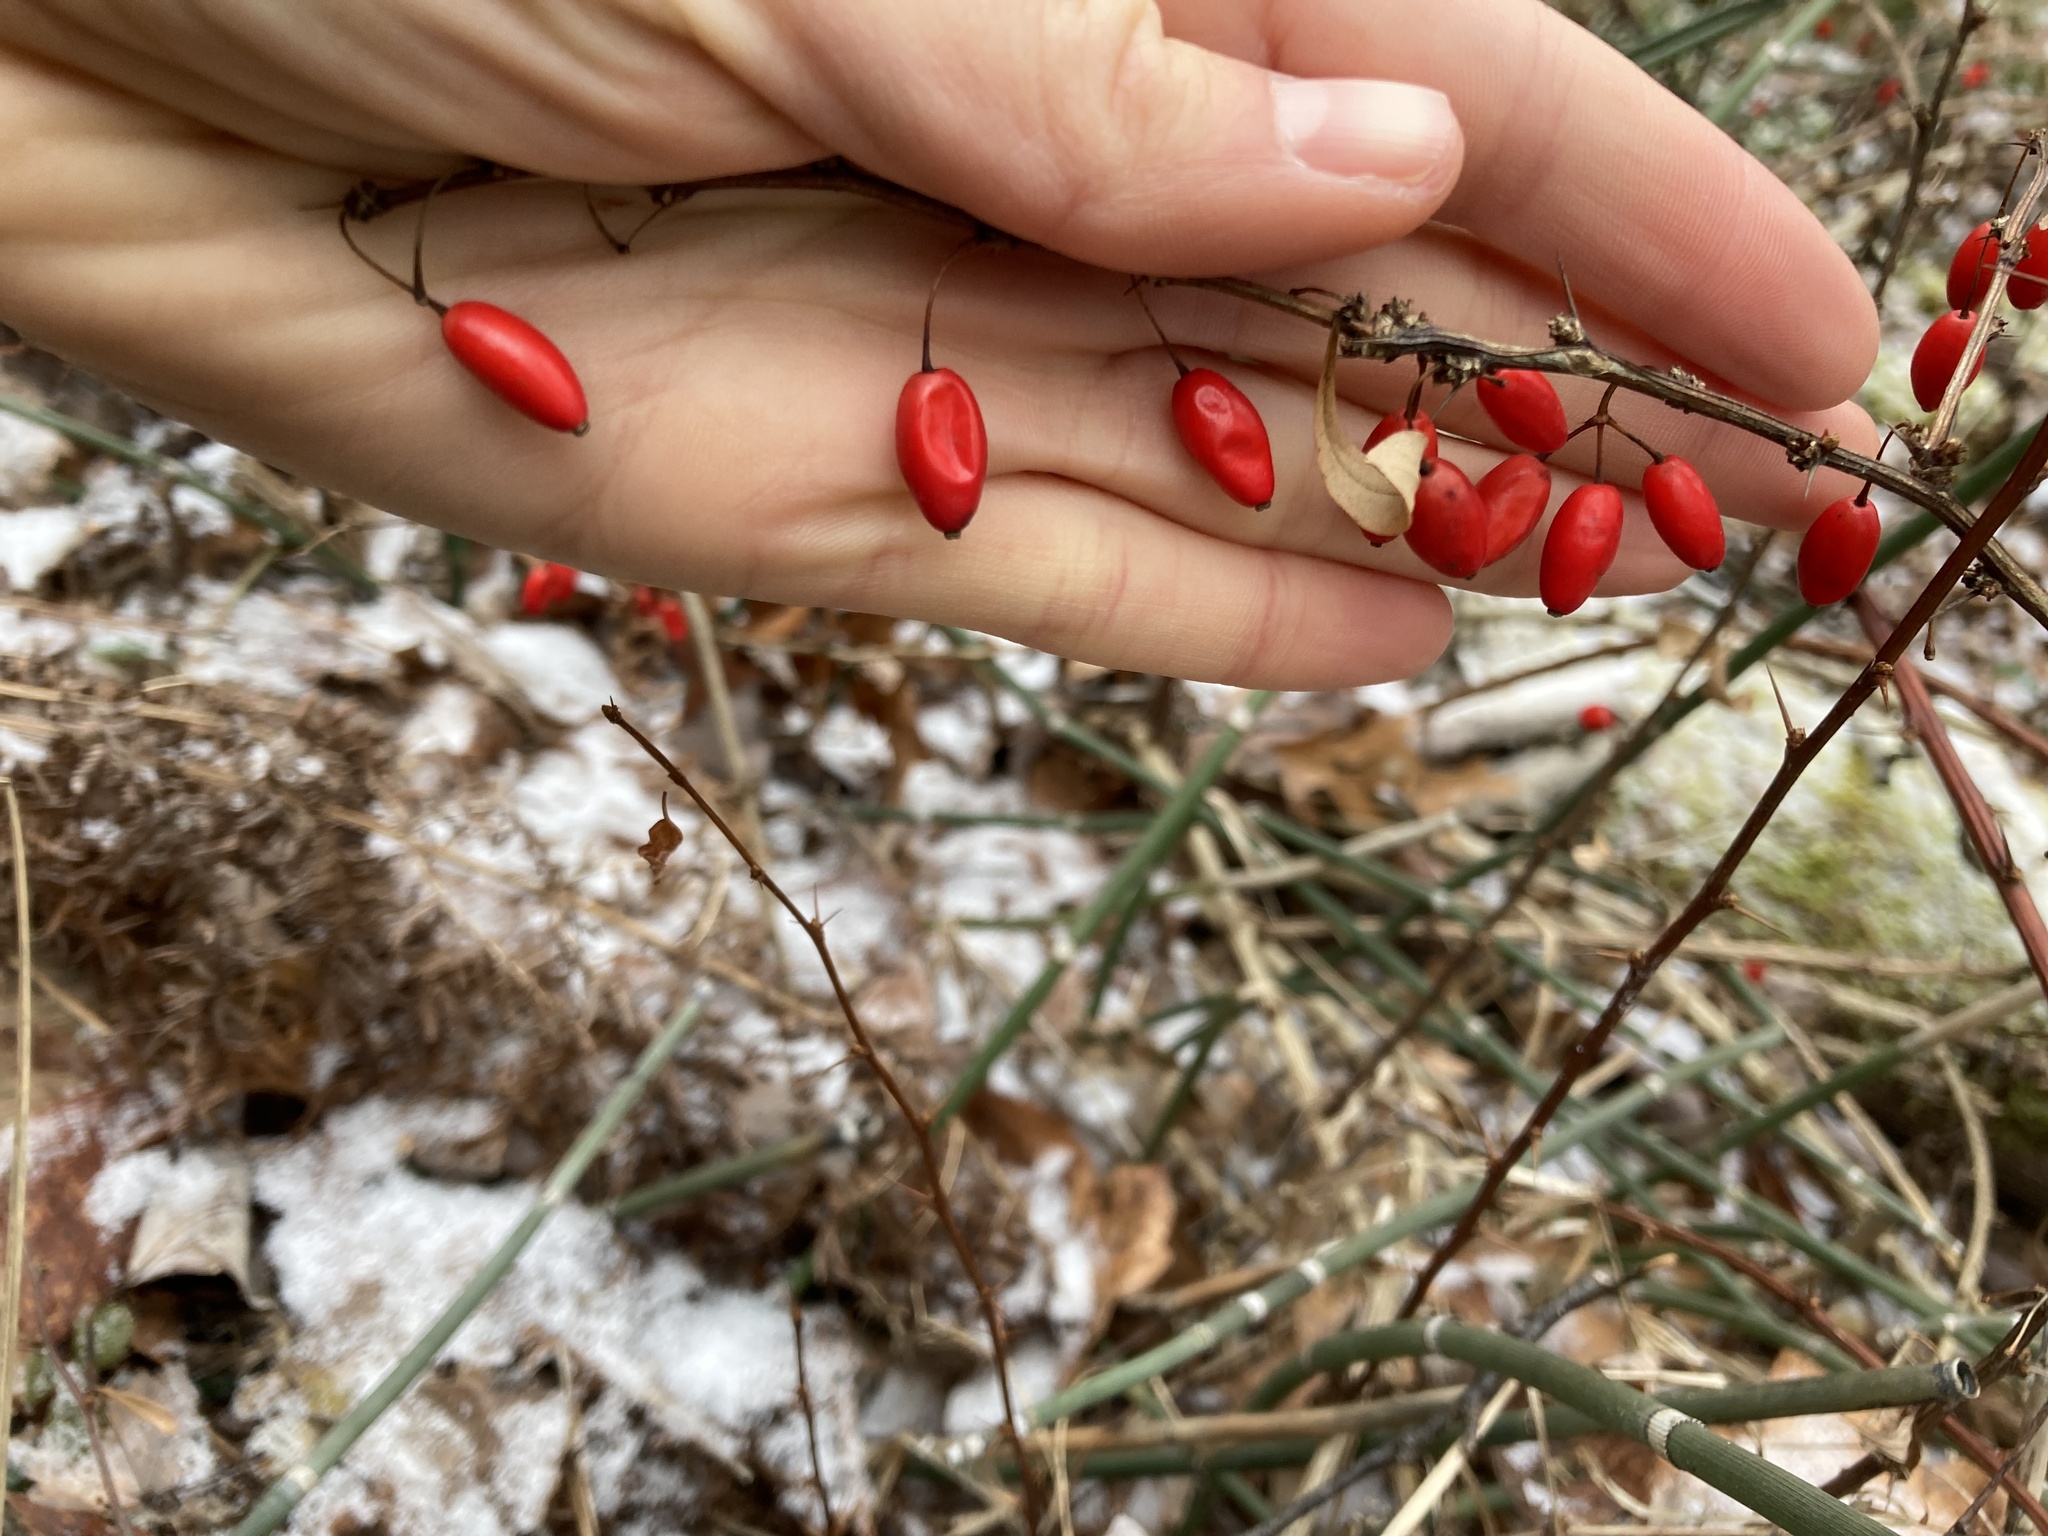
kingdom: Plantae
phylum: Tracheophyta
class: Magnoliopsida
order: Ranunculales
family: Berberidaceae
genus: Berberis
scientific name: Berberis thunbergii
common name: Japanese barberry
